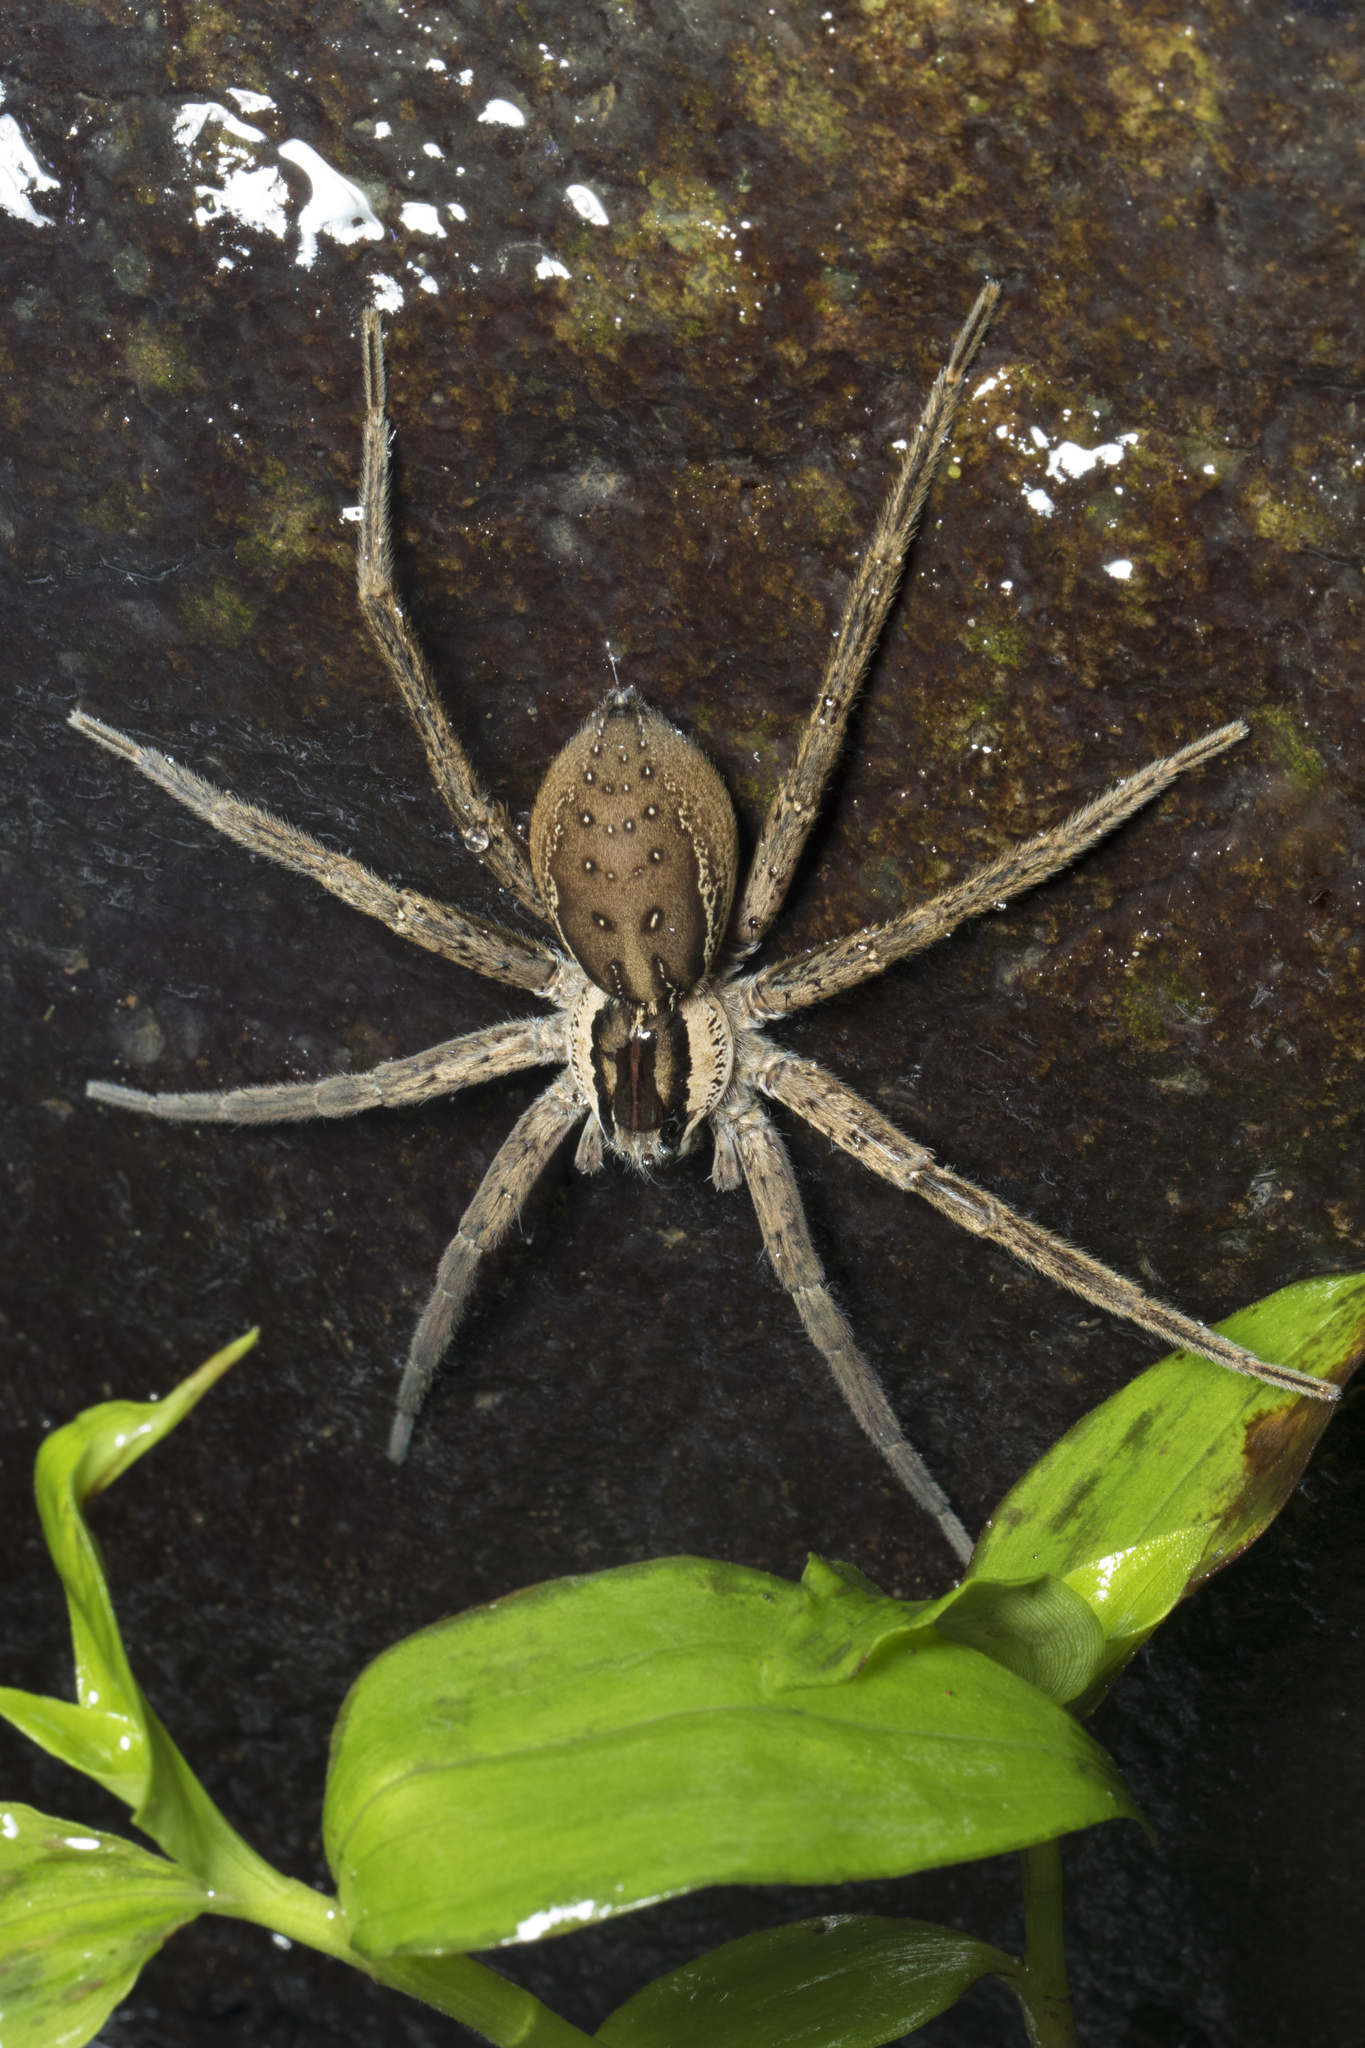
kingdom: Animalia
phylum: Arthropoda
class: Arachnida
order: Araneae
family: Pisauridae
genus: Dolomedes
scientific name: Dolomedes minor
